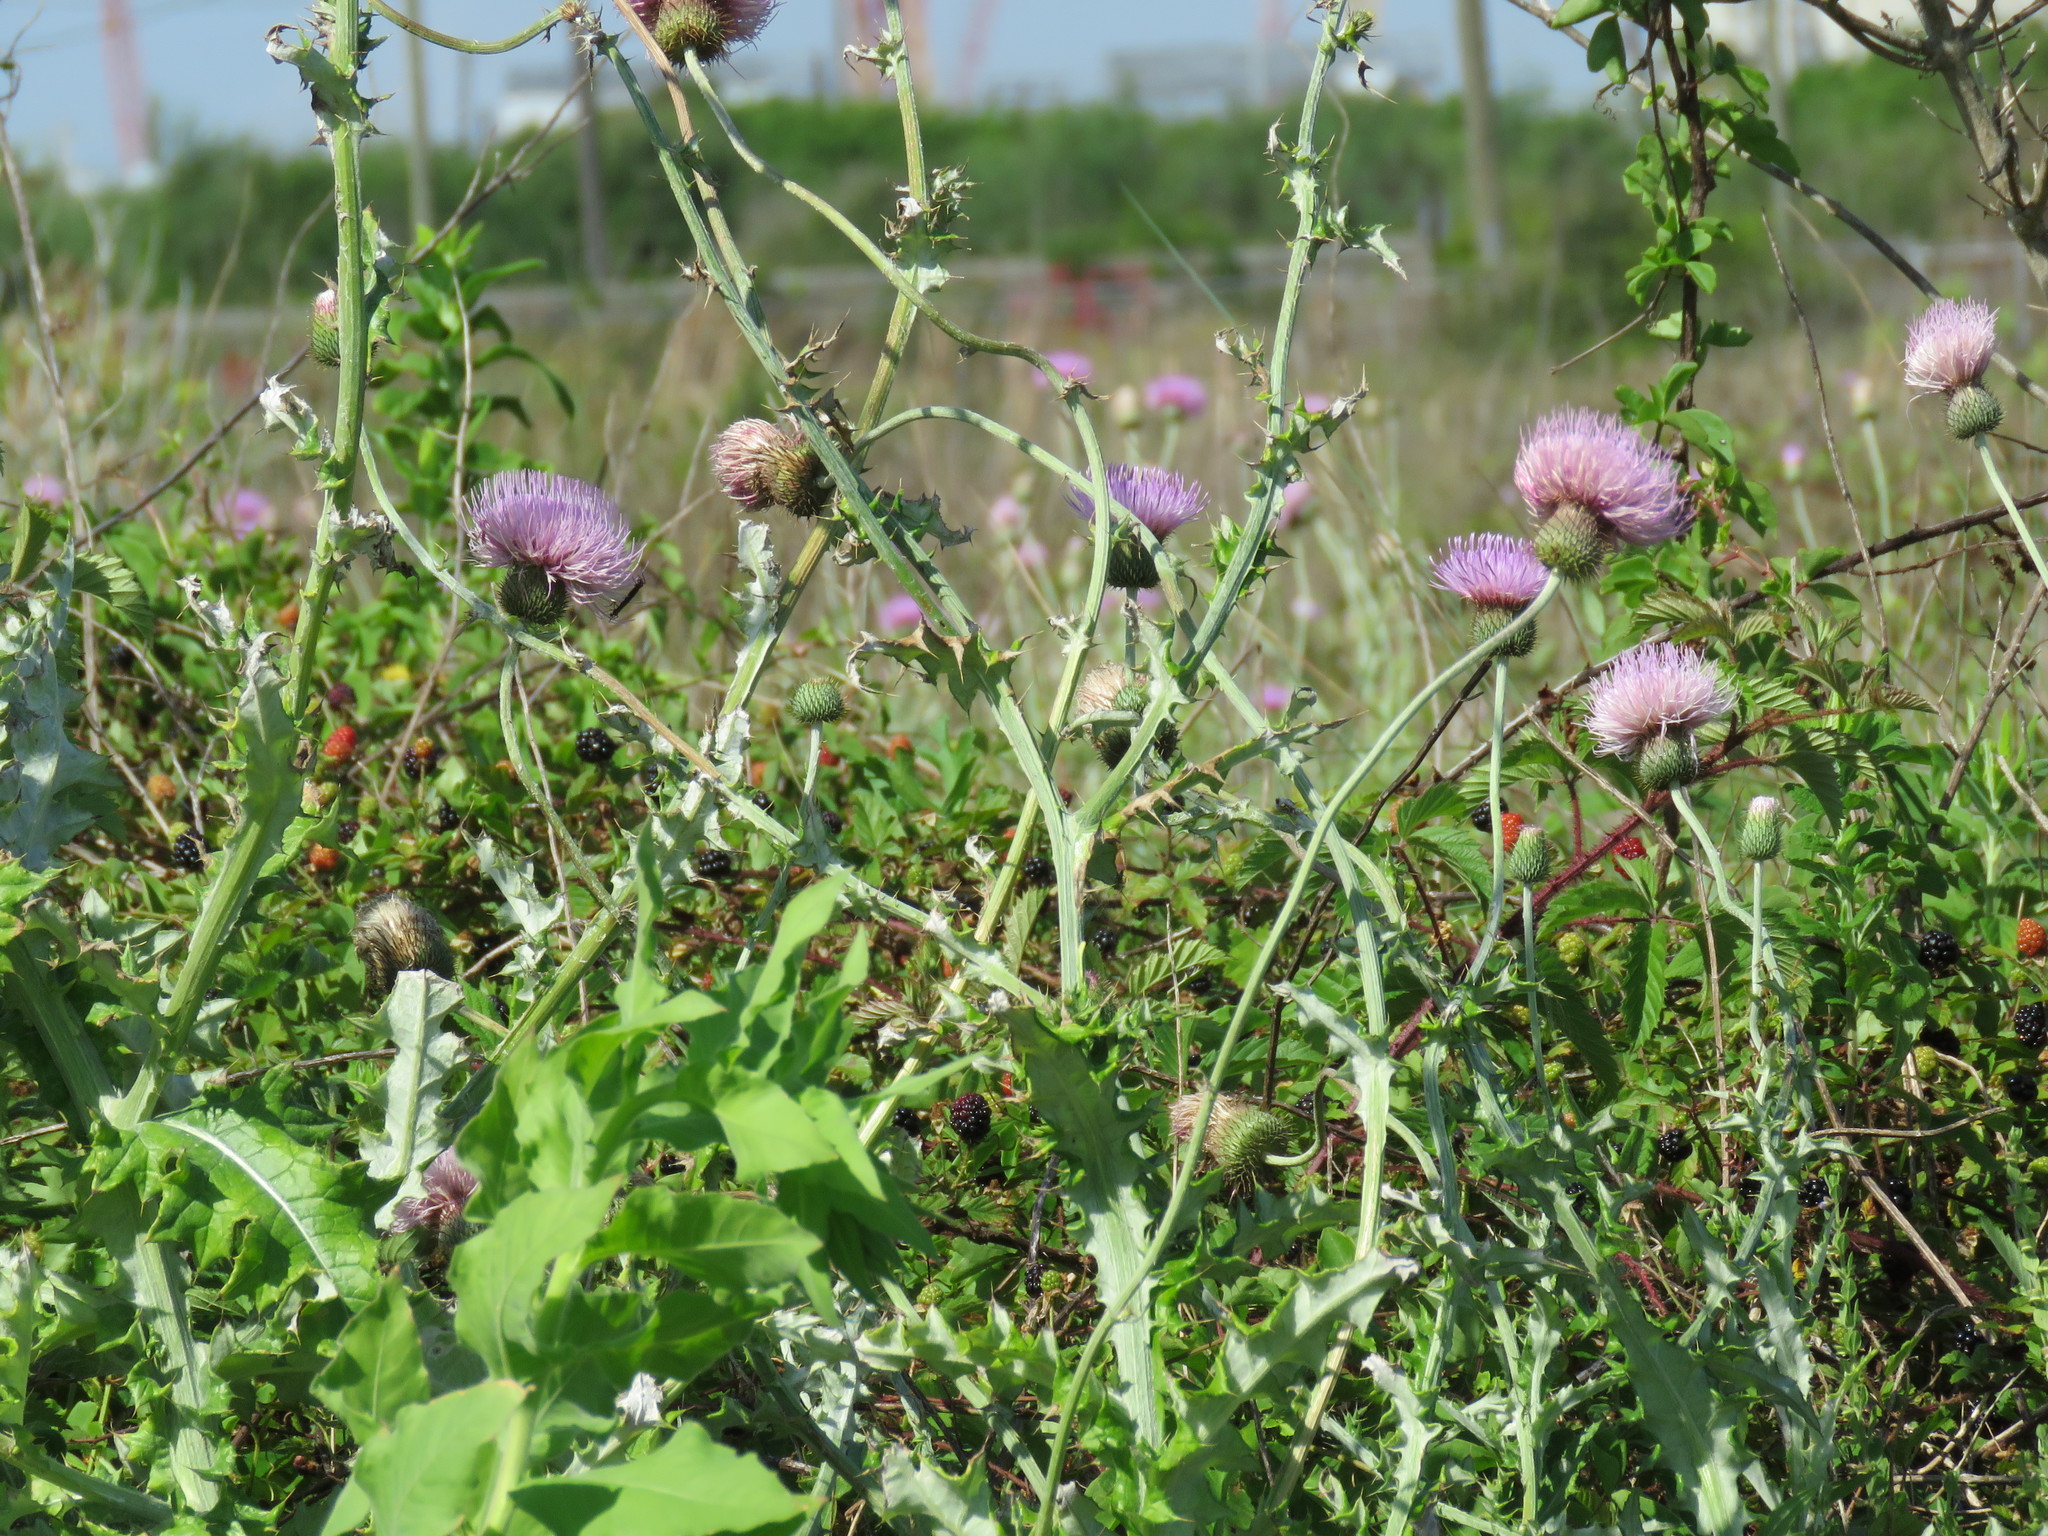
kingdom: Plantae
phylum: Tracheophyta
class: Magnoliopsida
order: Asterales
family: Asteraceae
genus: Cirsium
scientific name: Cirsium texanum
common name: Texas purple thistle
